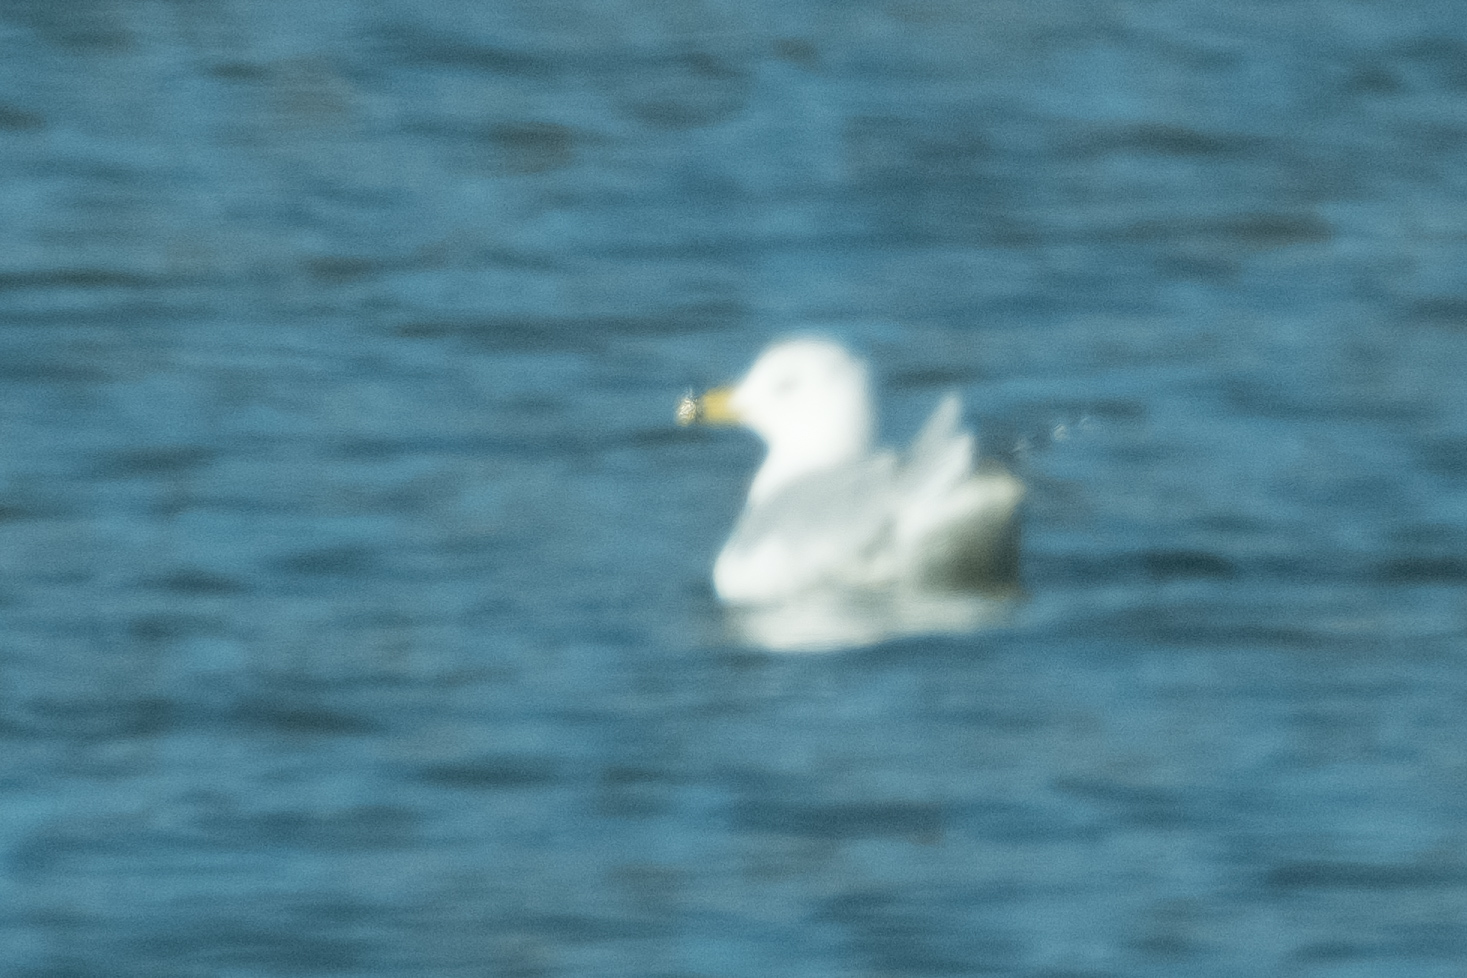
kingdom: Animalia
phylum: Chordata
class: Aves
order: Charadriiformes
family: Laridae
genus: Larus
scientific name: Larus delawarensis
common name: Ring-billed gull
